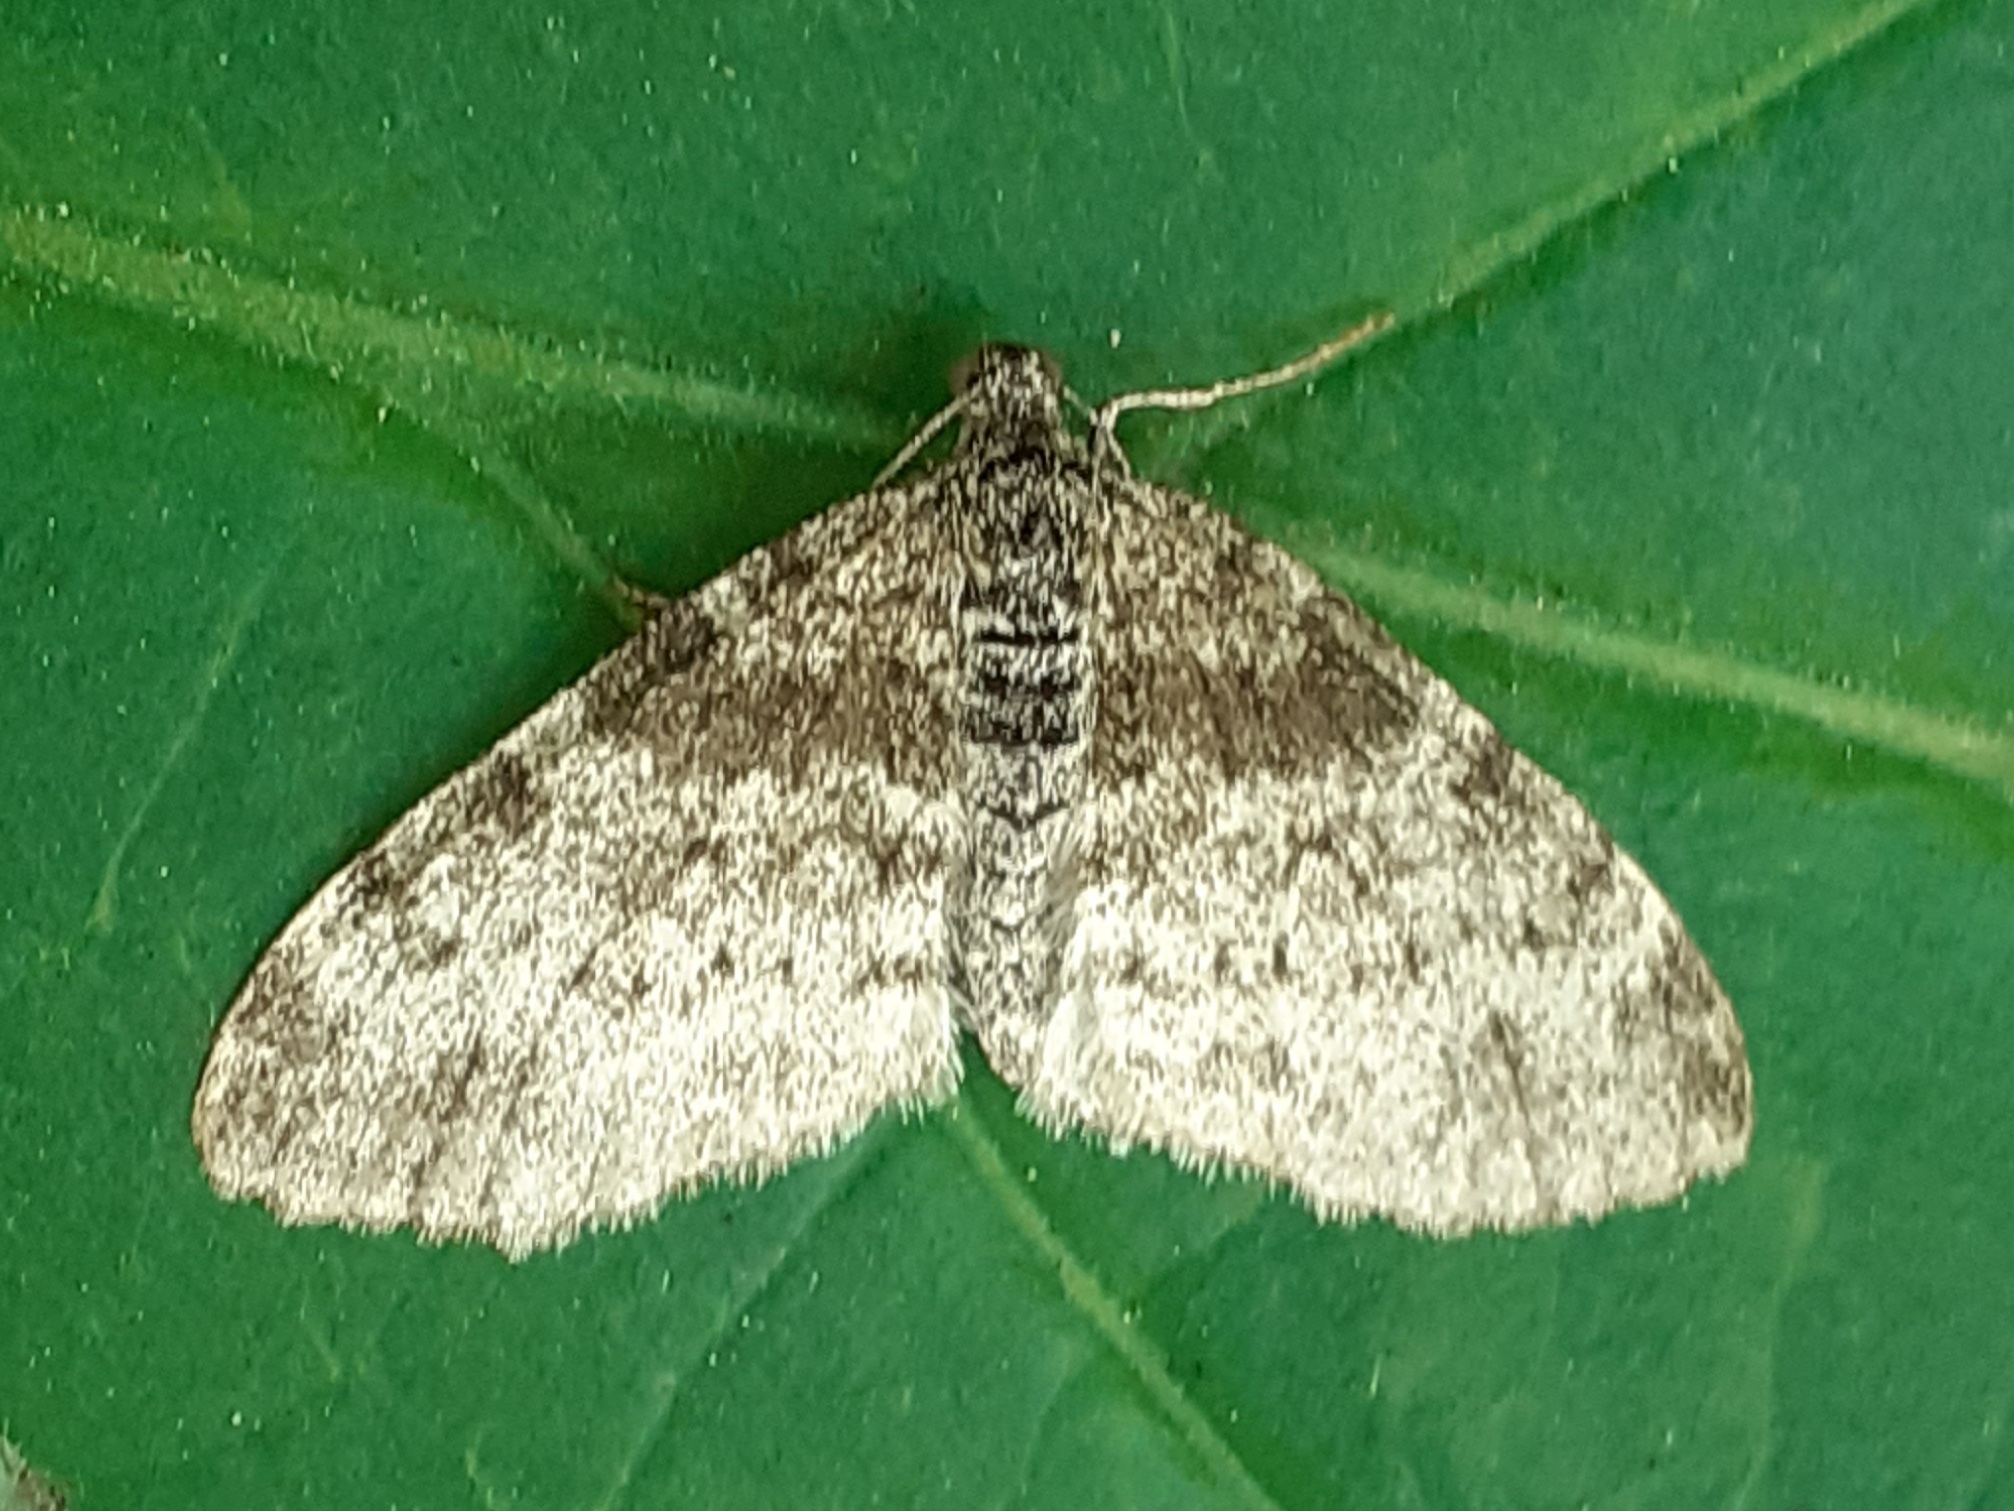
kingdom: Animalia
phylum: Arthropoda
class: Insecta
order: Lepidoptera
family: Geometridae
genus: Lobophora
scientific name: Lobophora halterata
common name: Seraphim
